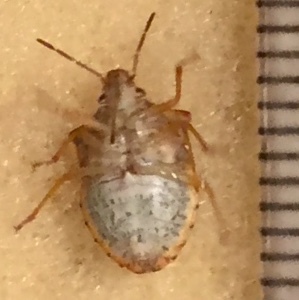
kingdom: Animalia
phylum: Arthropoda
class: Insecta
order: Hemiptera
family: Pentatomidae
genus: Dendrocoris
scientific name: Dendrocoris humeralis
